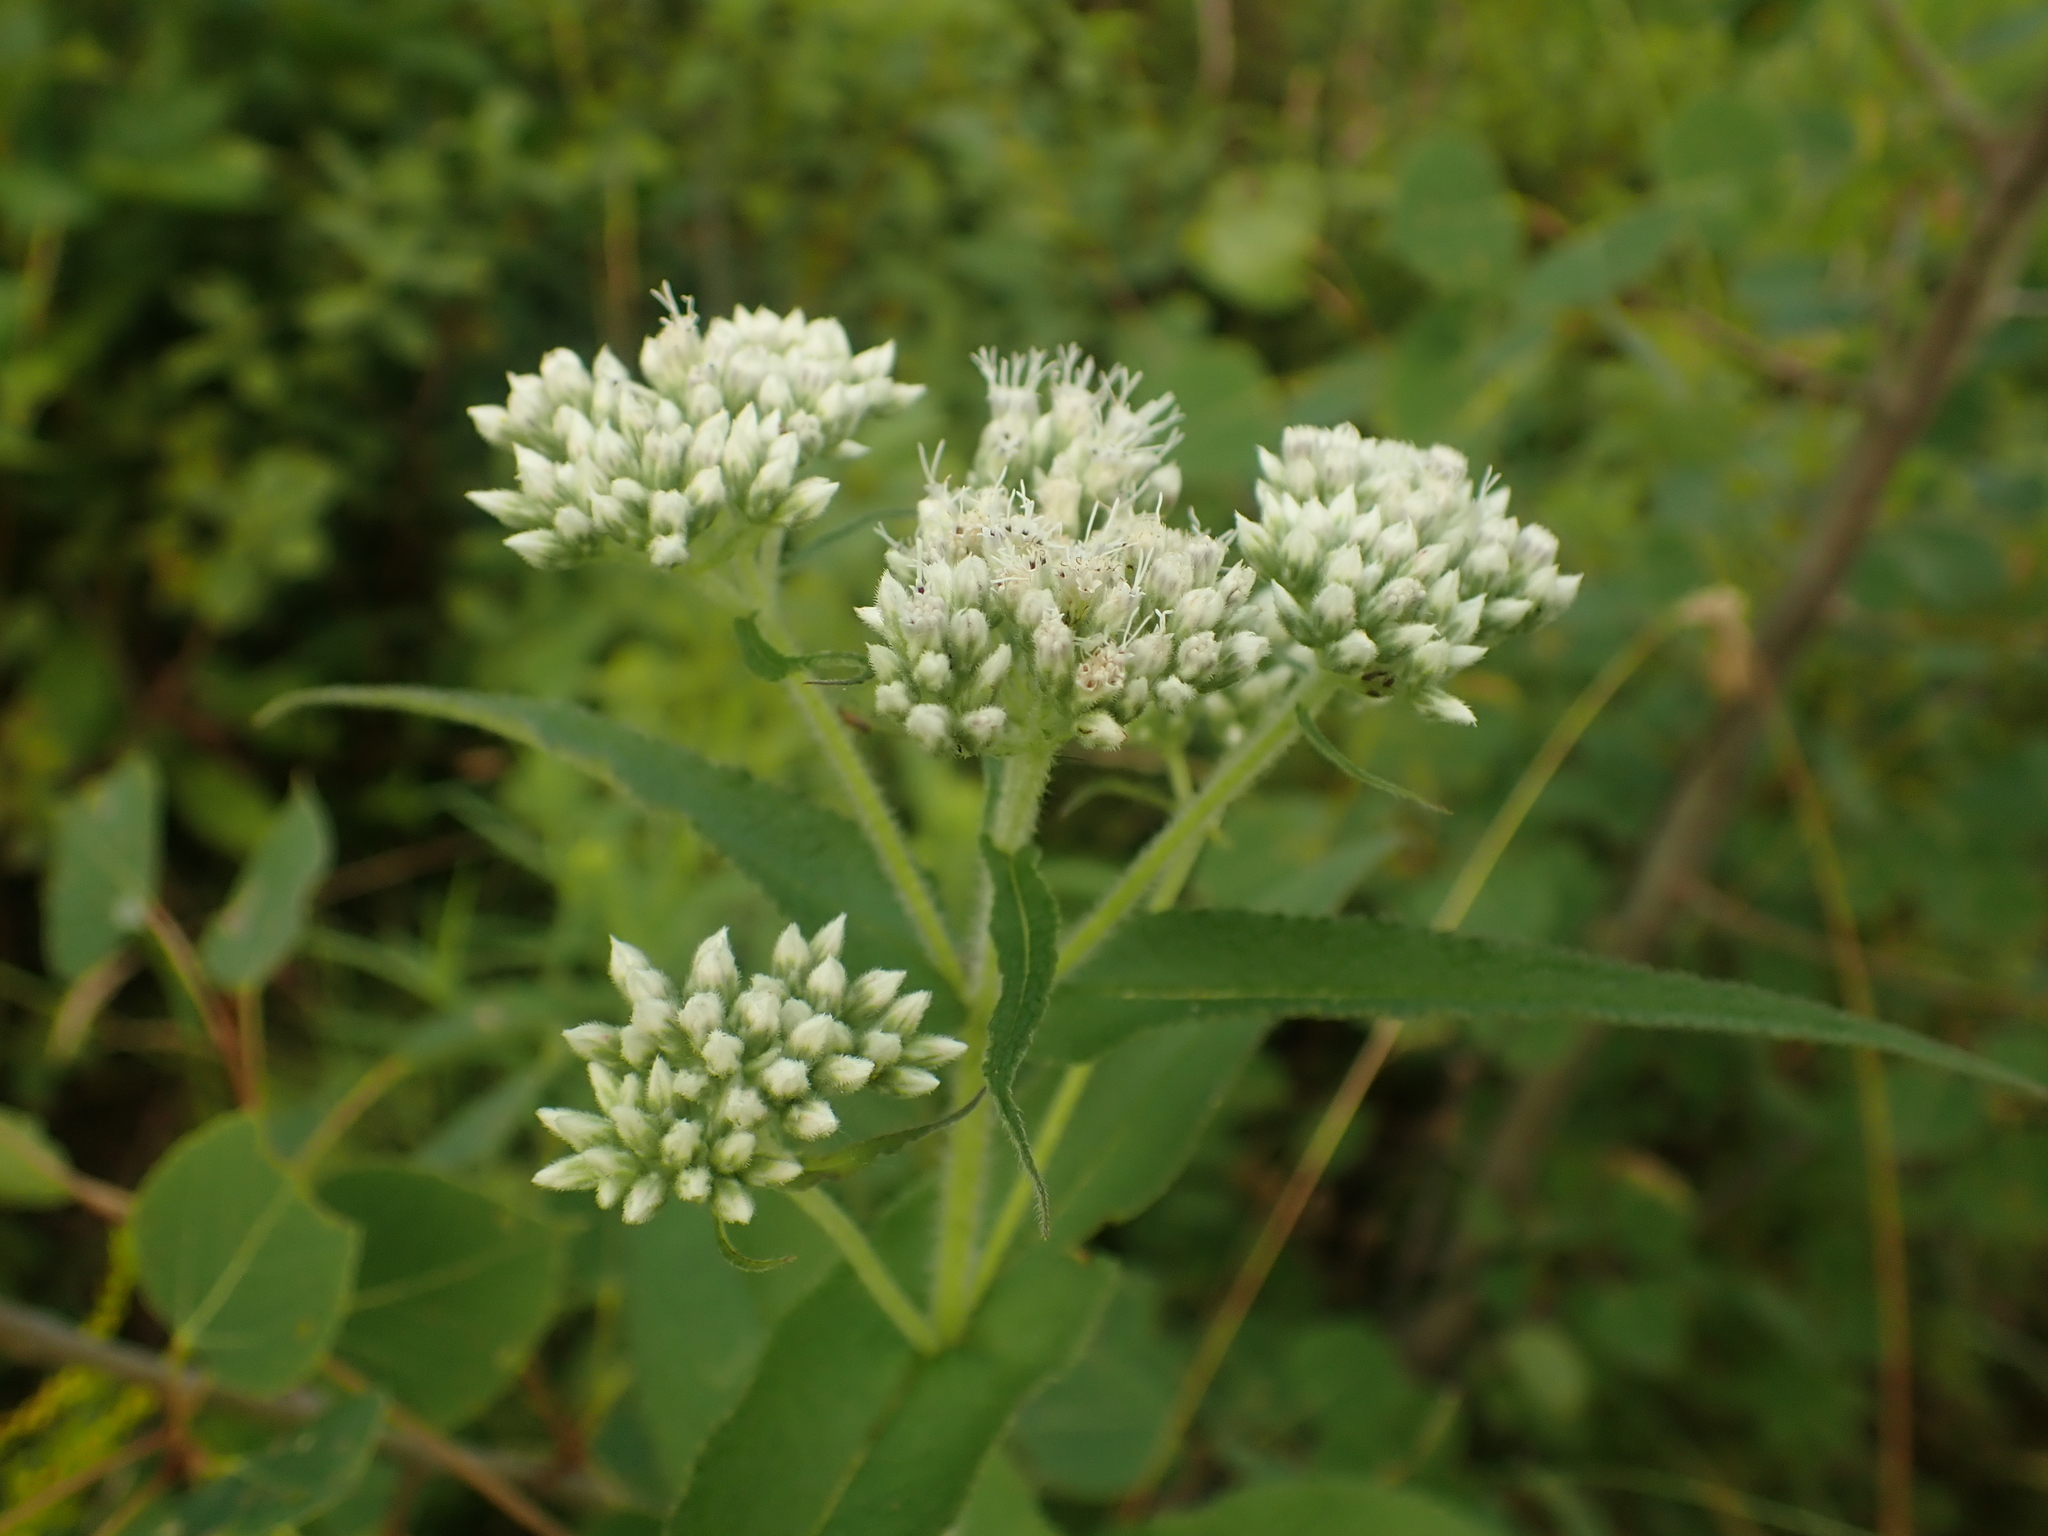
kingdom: Plantae
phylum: Tracheophyta
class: Magnoliopsida
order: Asterales
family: Asteraceae
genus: Eupatorium
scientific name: Eupatorium perfoliatum
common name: Boneset
